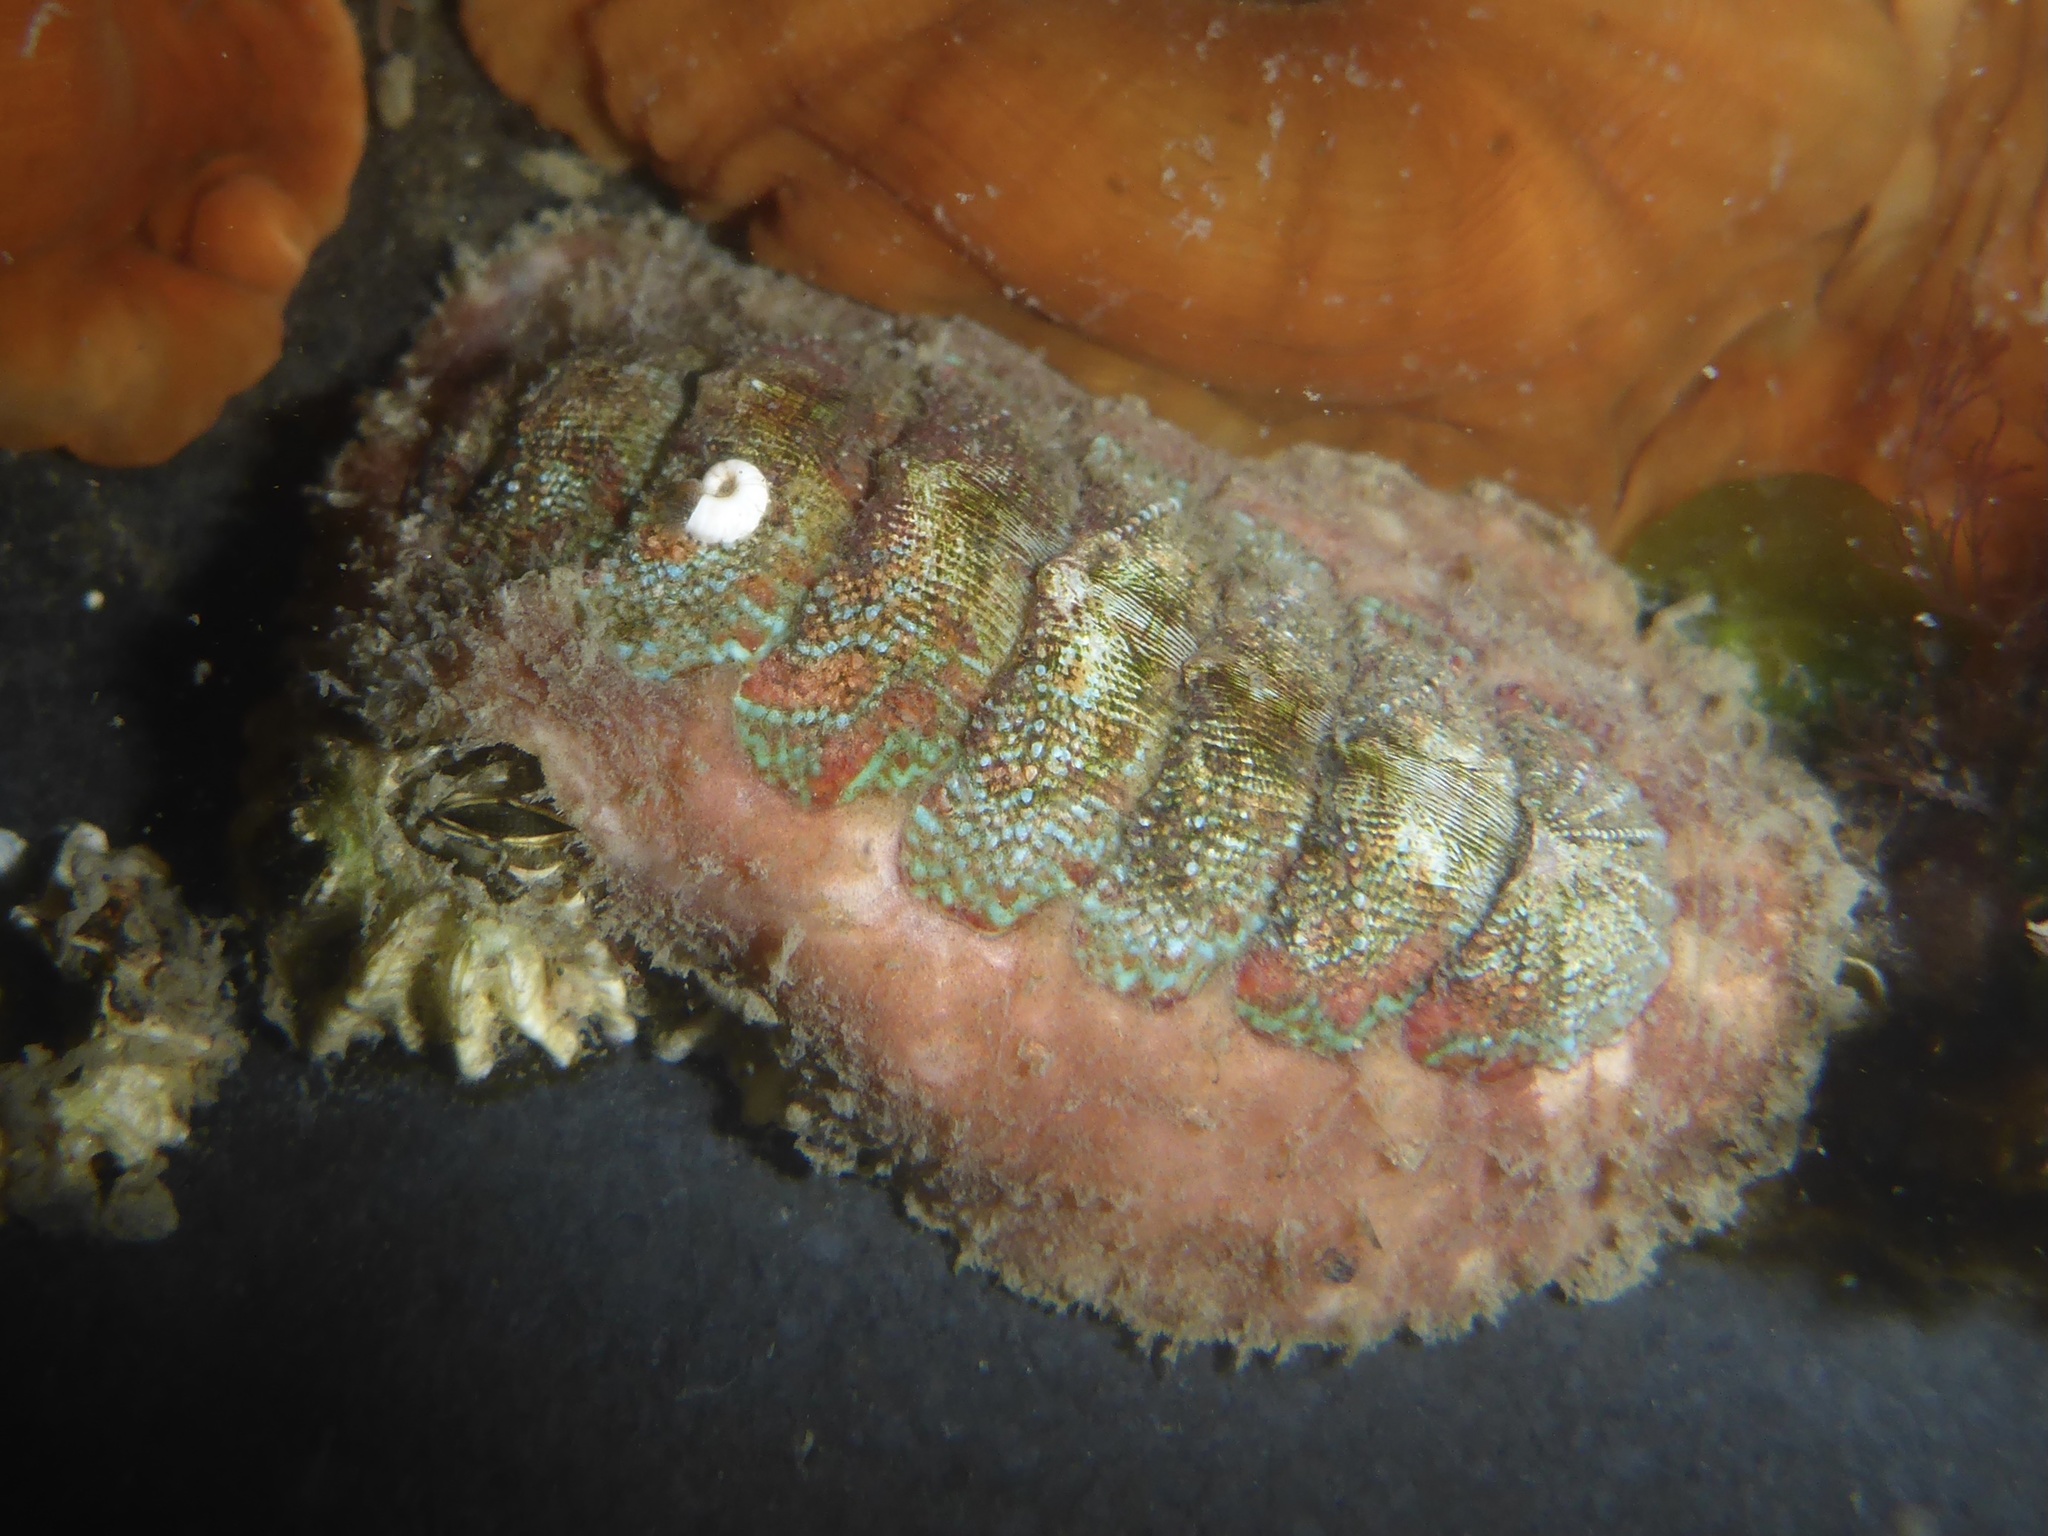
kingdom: Animalia
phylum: Mollusca
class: Polyplacophora
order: Chitonida
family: Mopaliidae
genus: Mopalia
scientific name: Mopalia spectabilis
